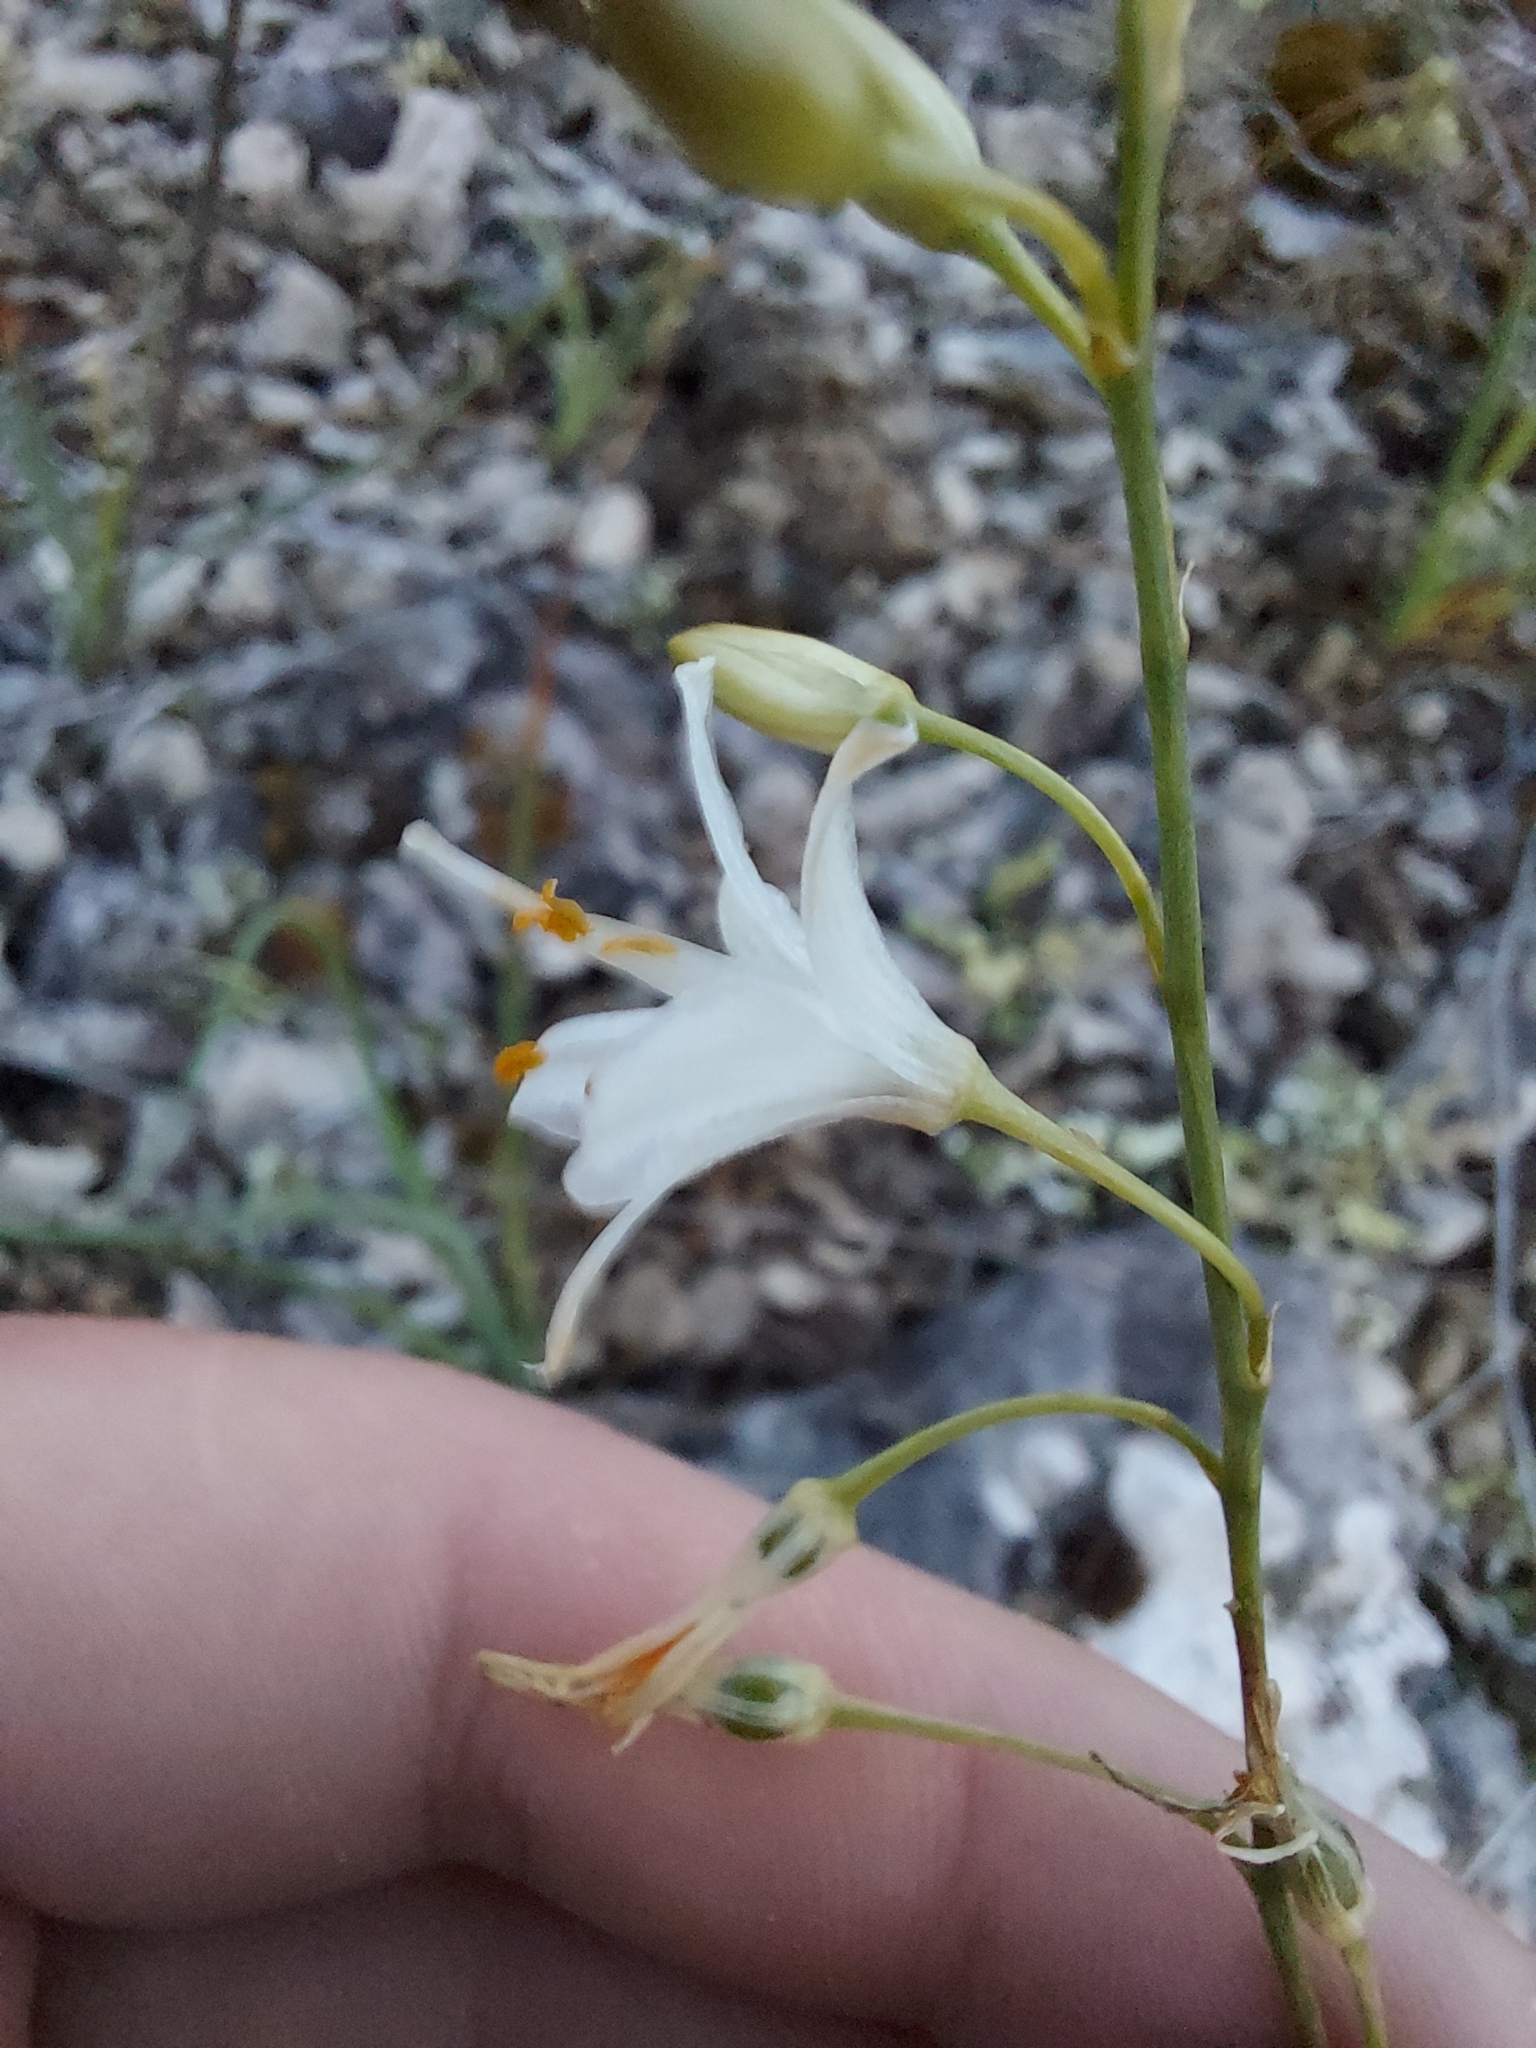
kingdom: Plantae
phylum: Tracheophyta
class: Liliopsida
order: Asparagales
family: Asparagaceae
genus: Anthericum
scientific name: Anthericum ramosum
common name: Branched st. bernard's-lily
